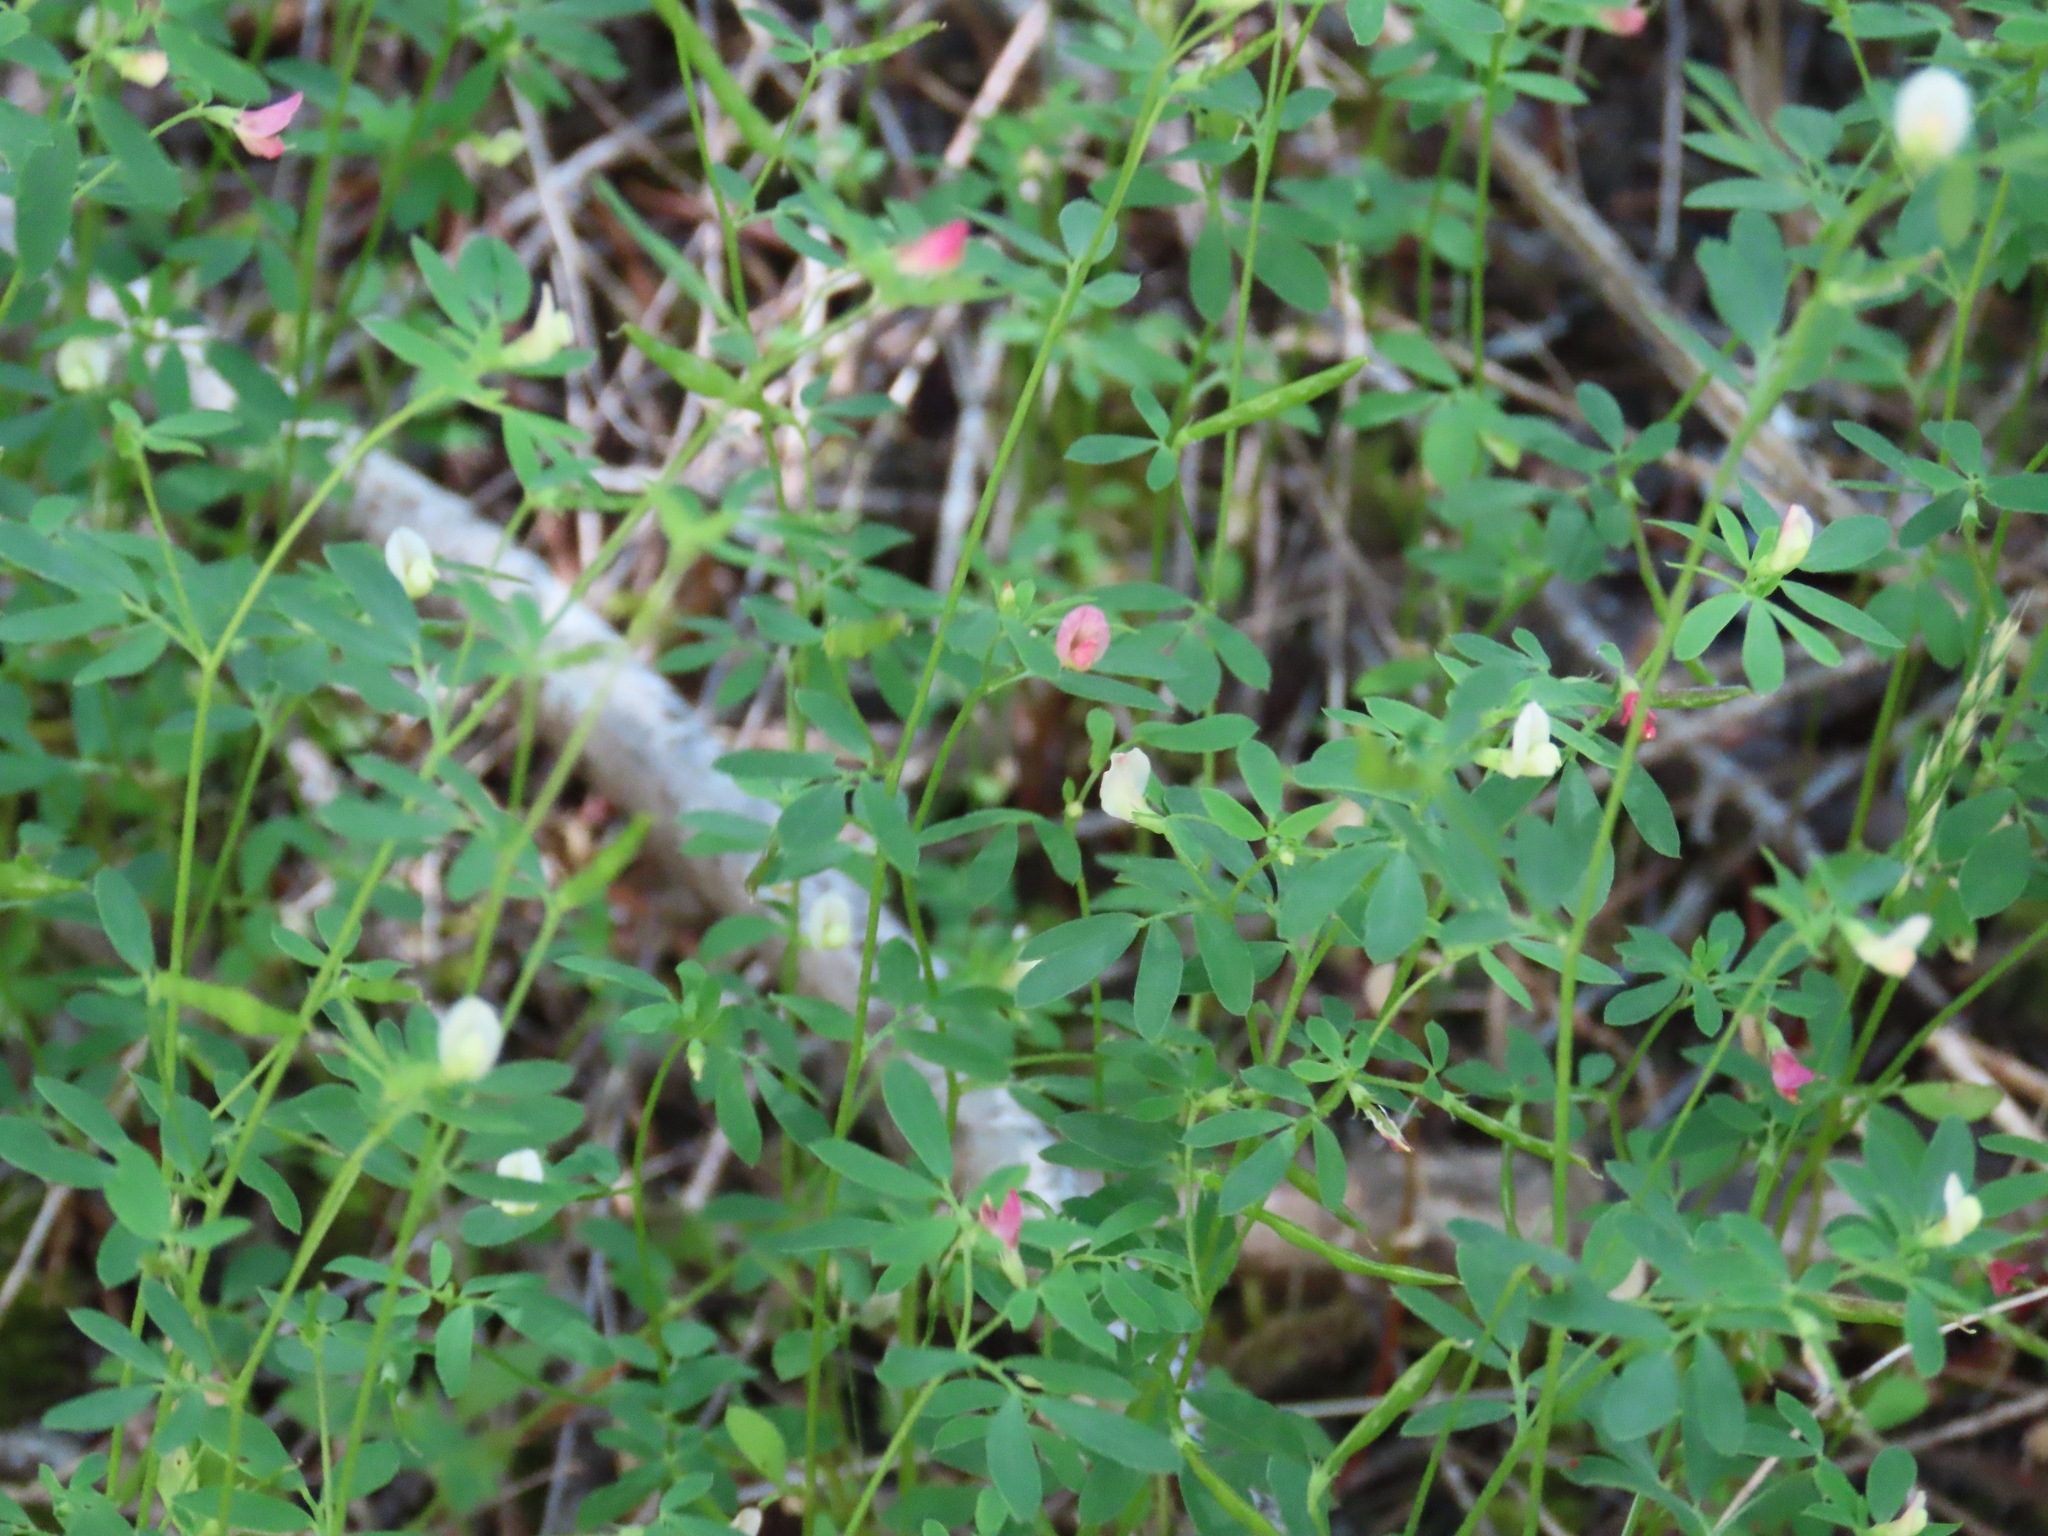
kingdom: Plantae
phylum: Tracheophyta
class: Magnoliopsida
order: Fabales
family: Fabaceae
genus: Acmispon
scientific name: Acmispon parviflorus
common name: Desert deer-vetch
